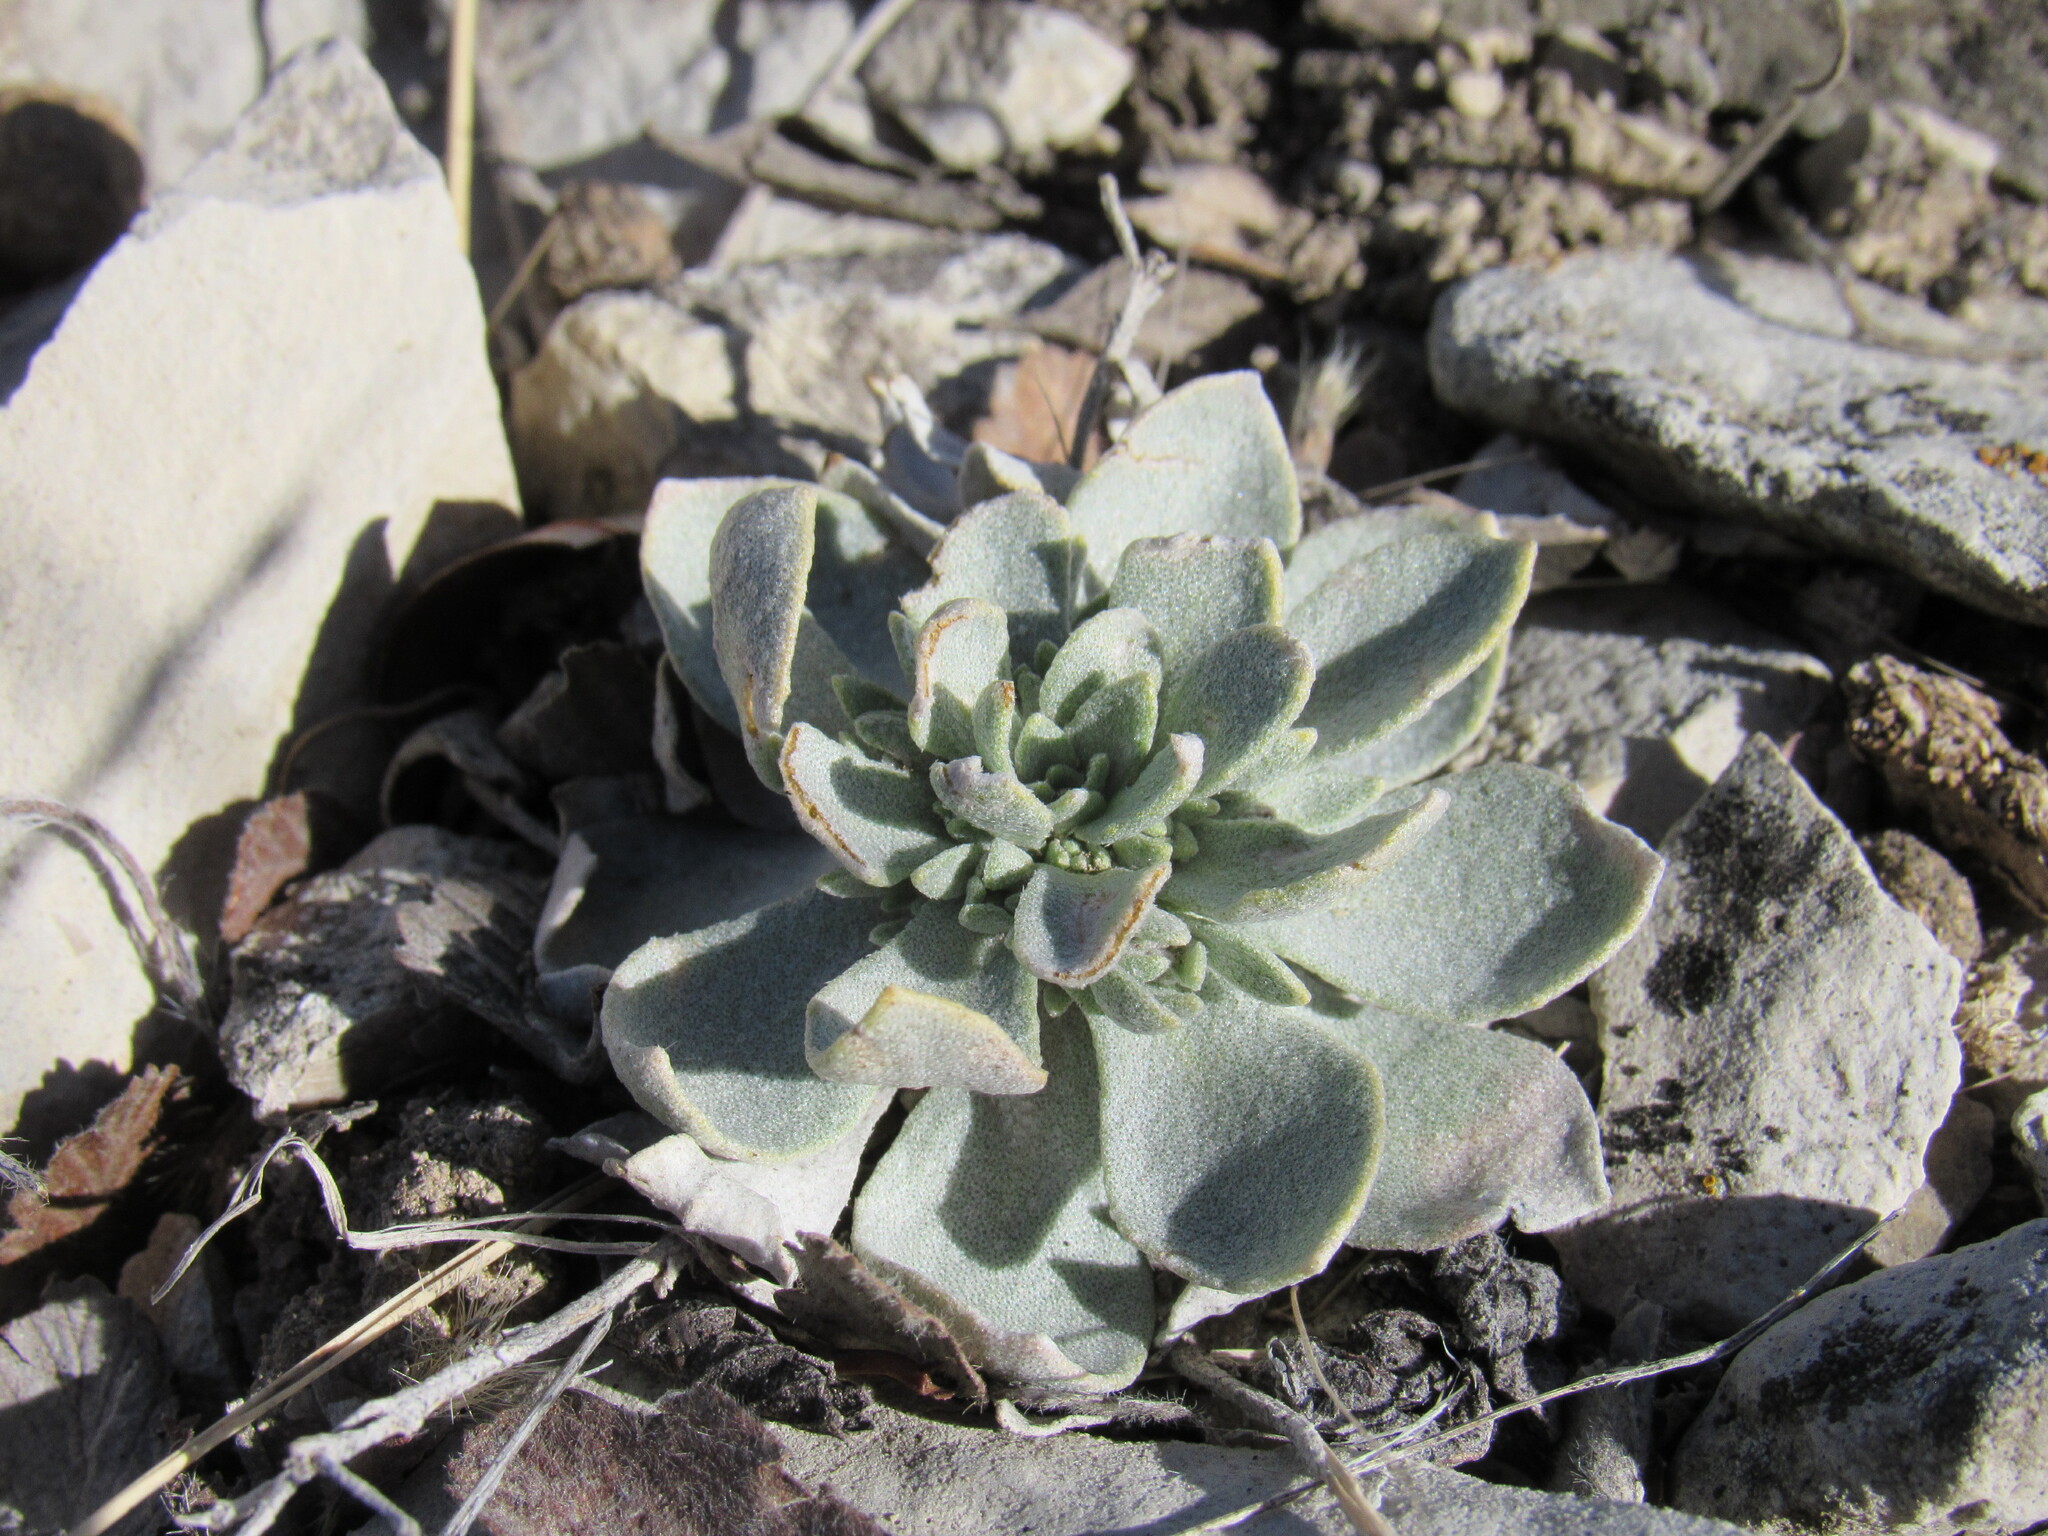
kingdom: Plantae
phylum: Tracheophyta
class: Magnoliopsida
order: Brassicales
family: Brassicaceae
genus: Physaria
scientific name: Physaria bellii
